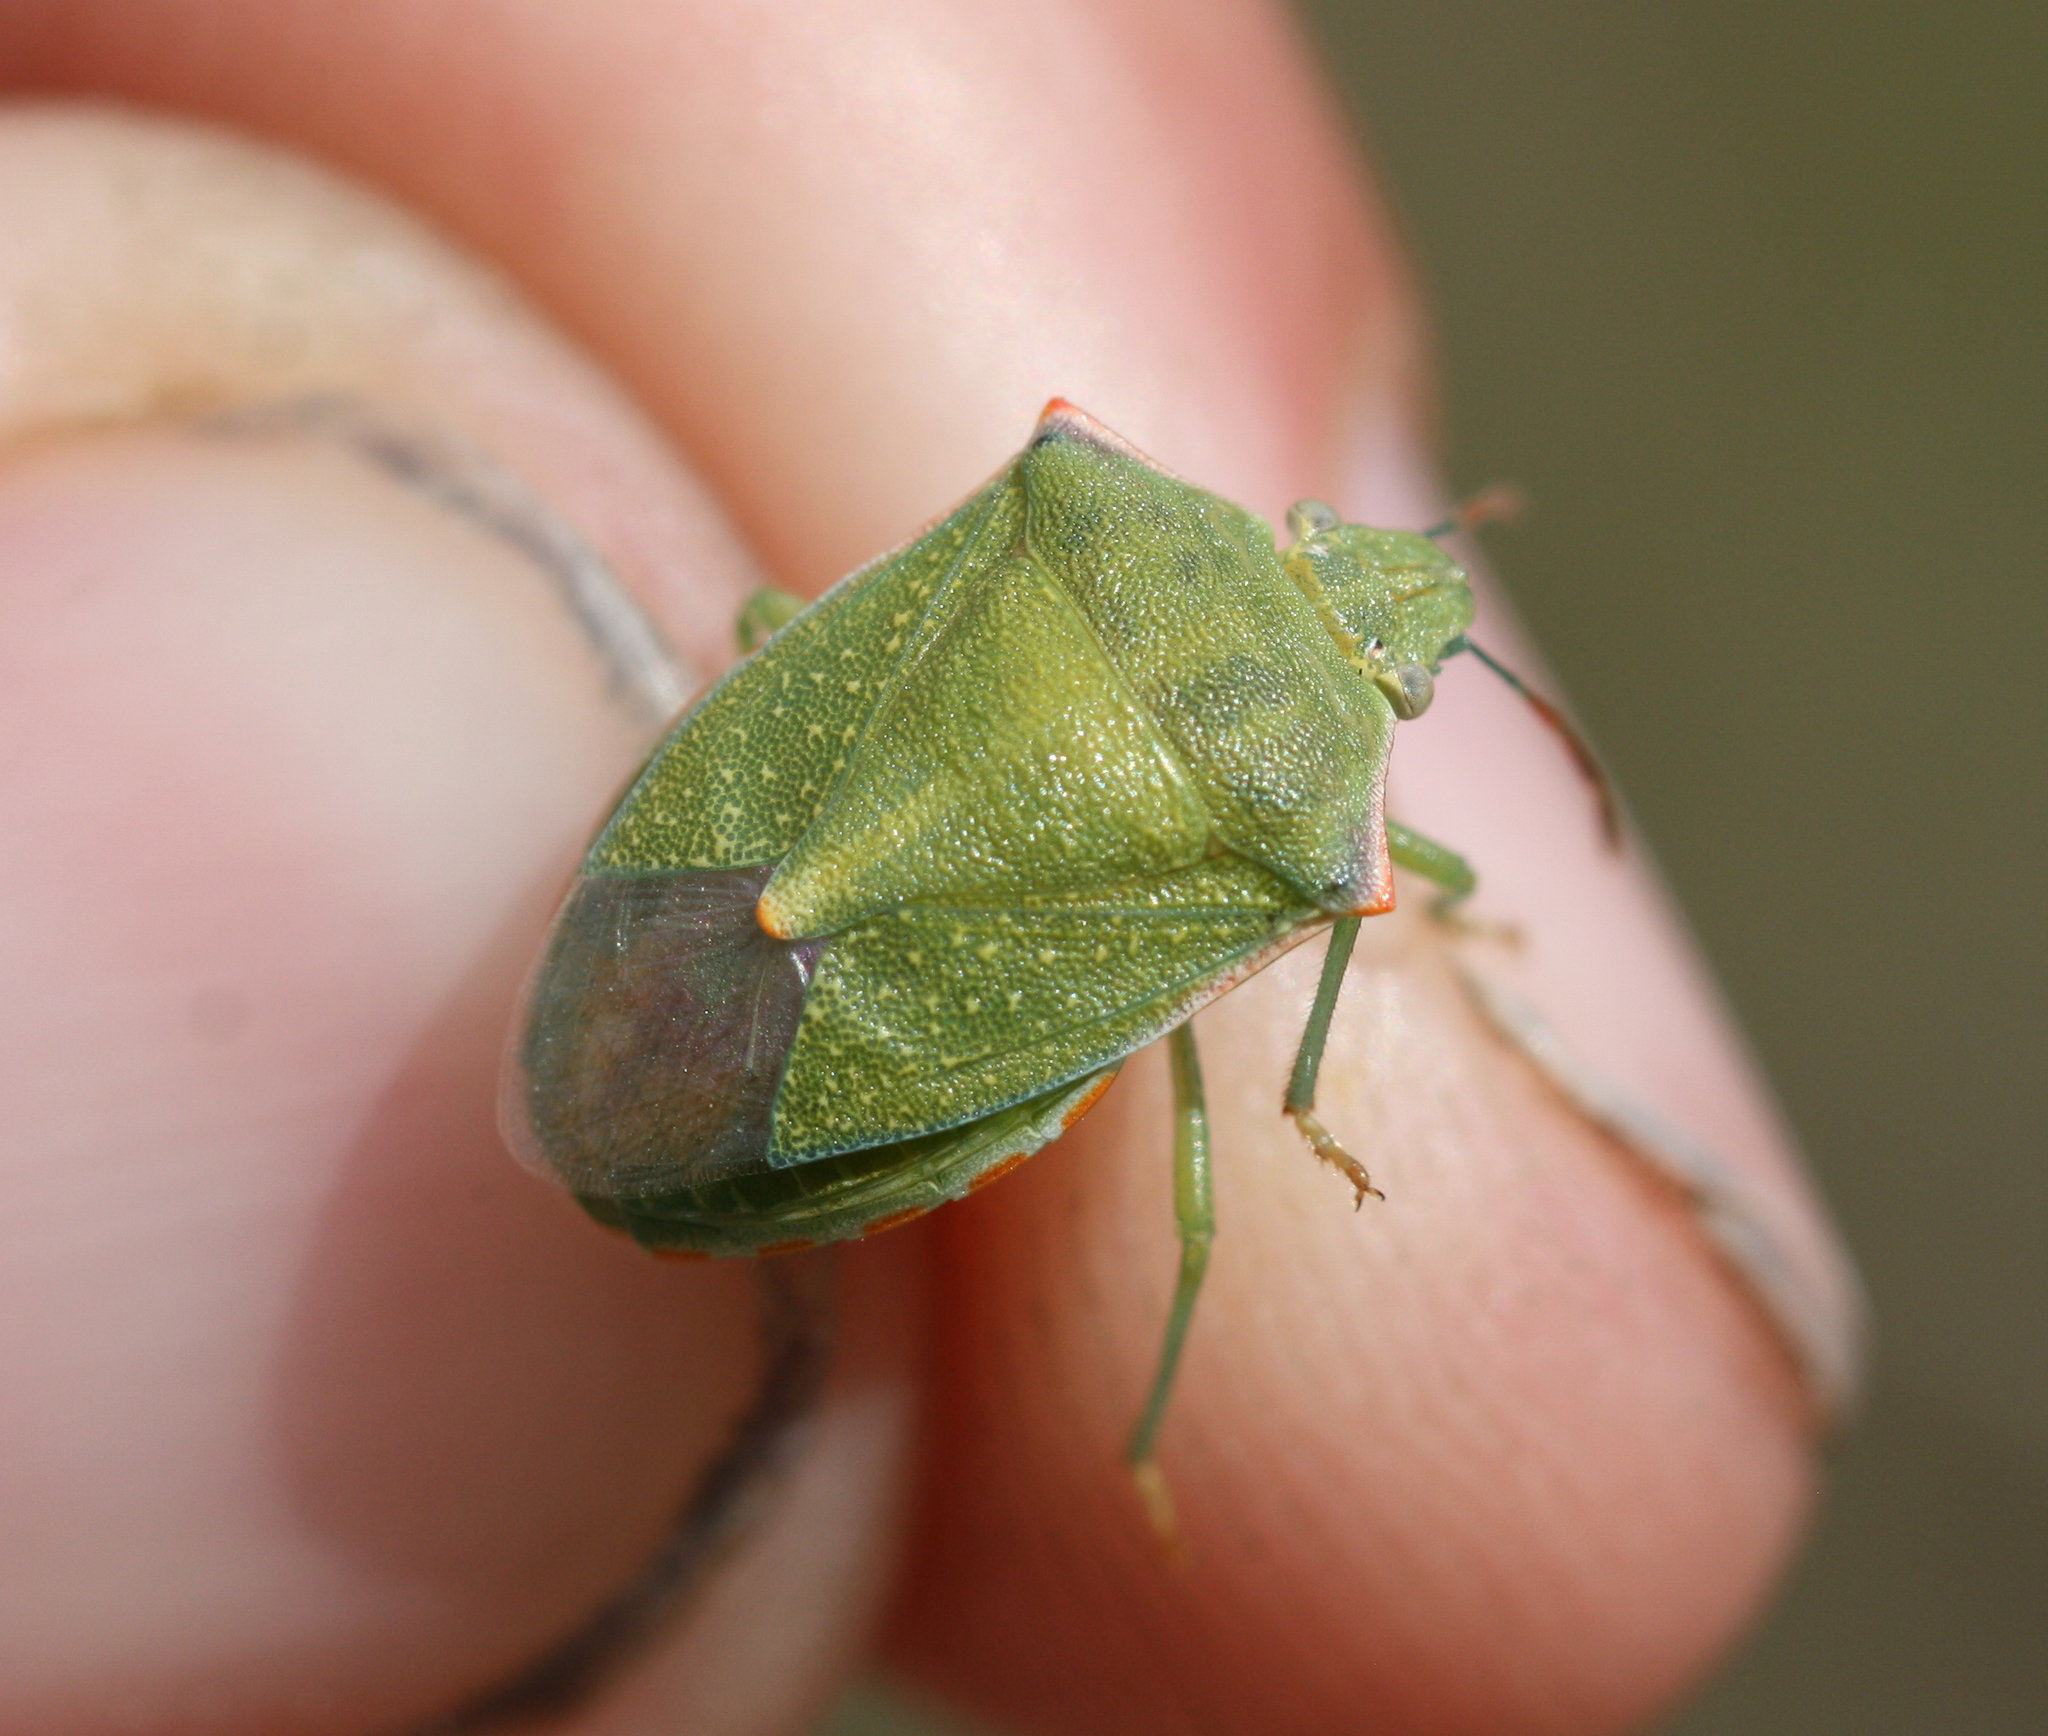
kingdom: Animalia
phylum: Arthropoda
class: Insecta
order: Hemiptera
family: Pentatomidae
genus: Thyanta
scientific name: Thyanta accerra
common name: Stink bug
